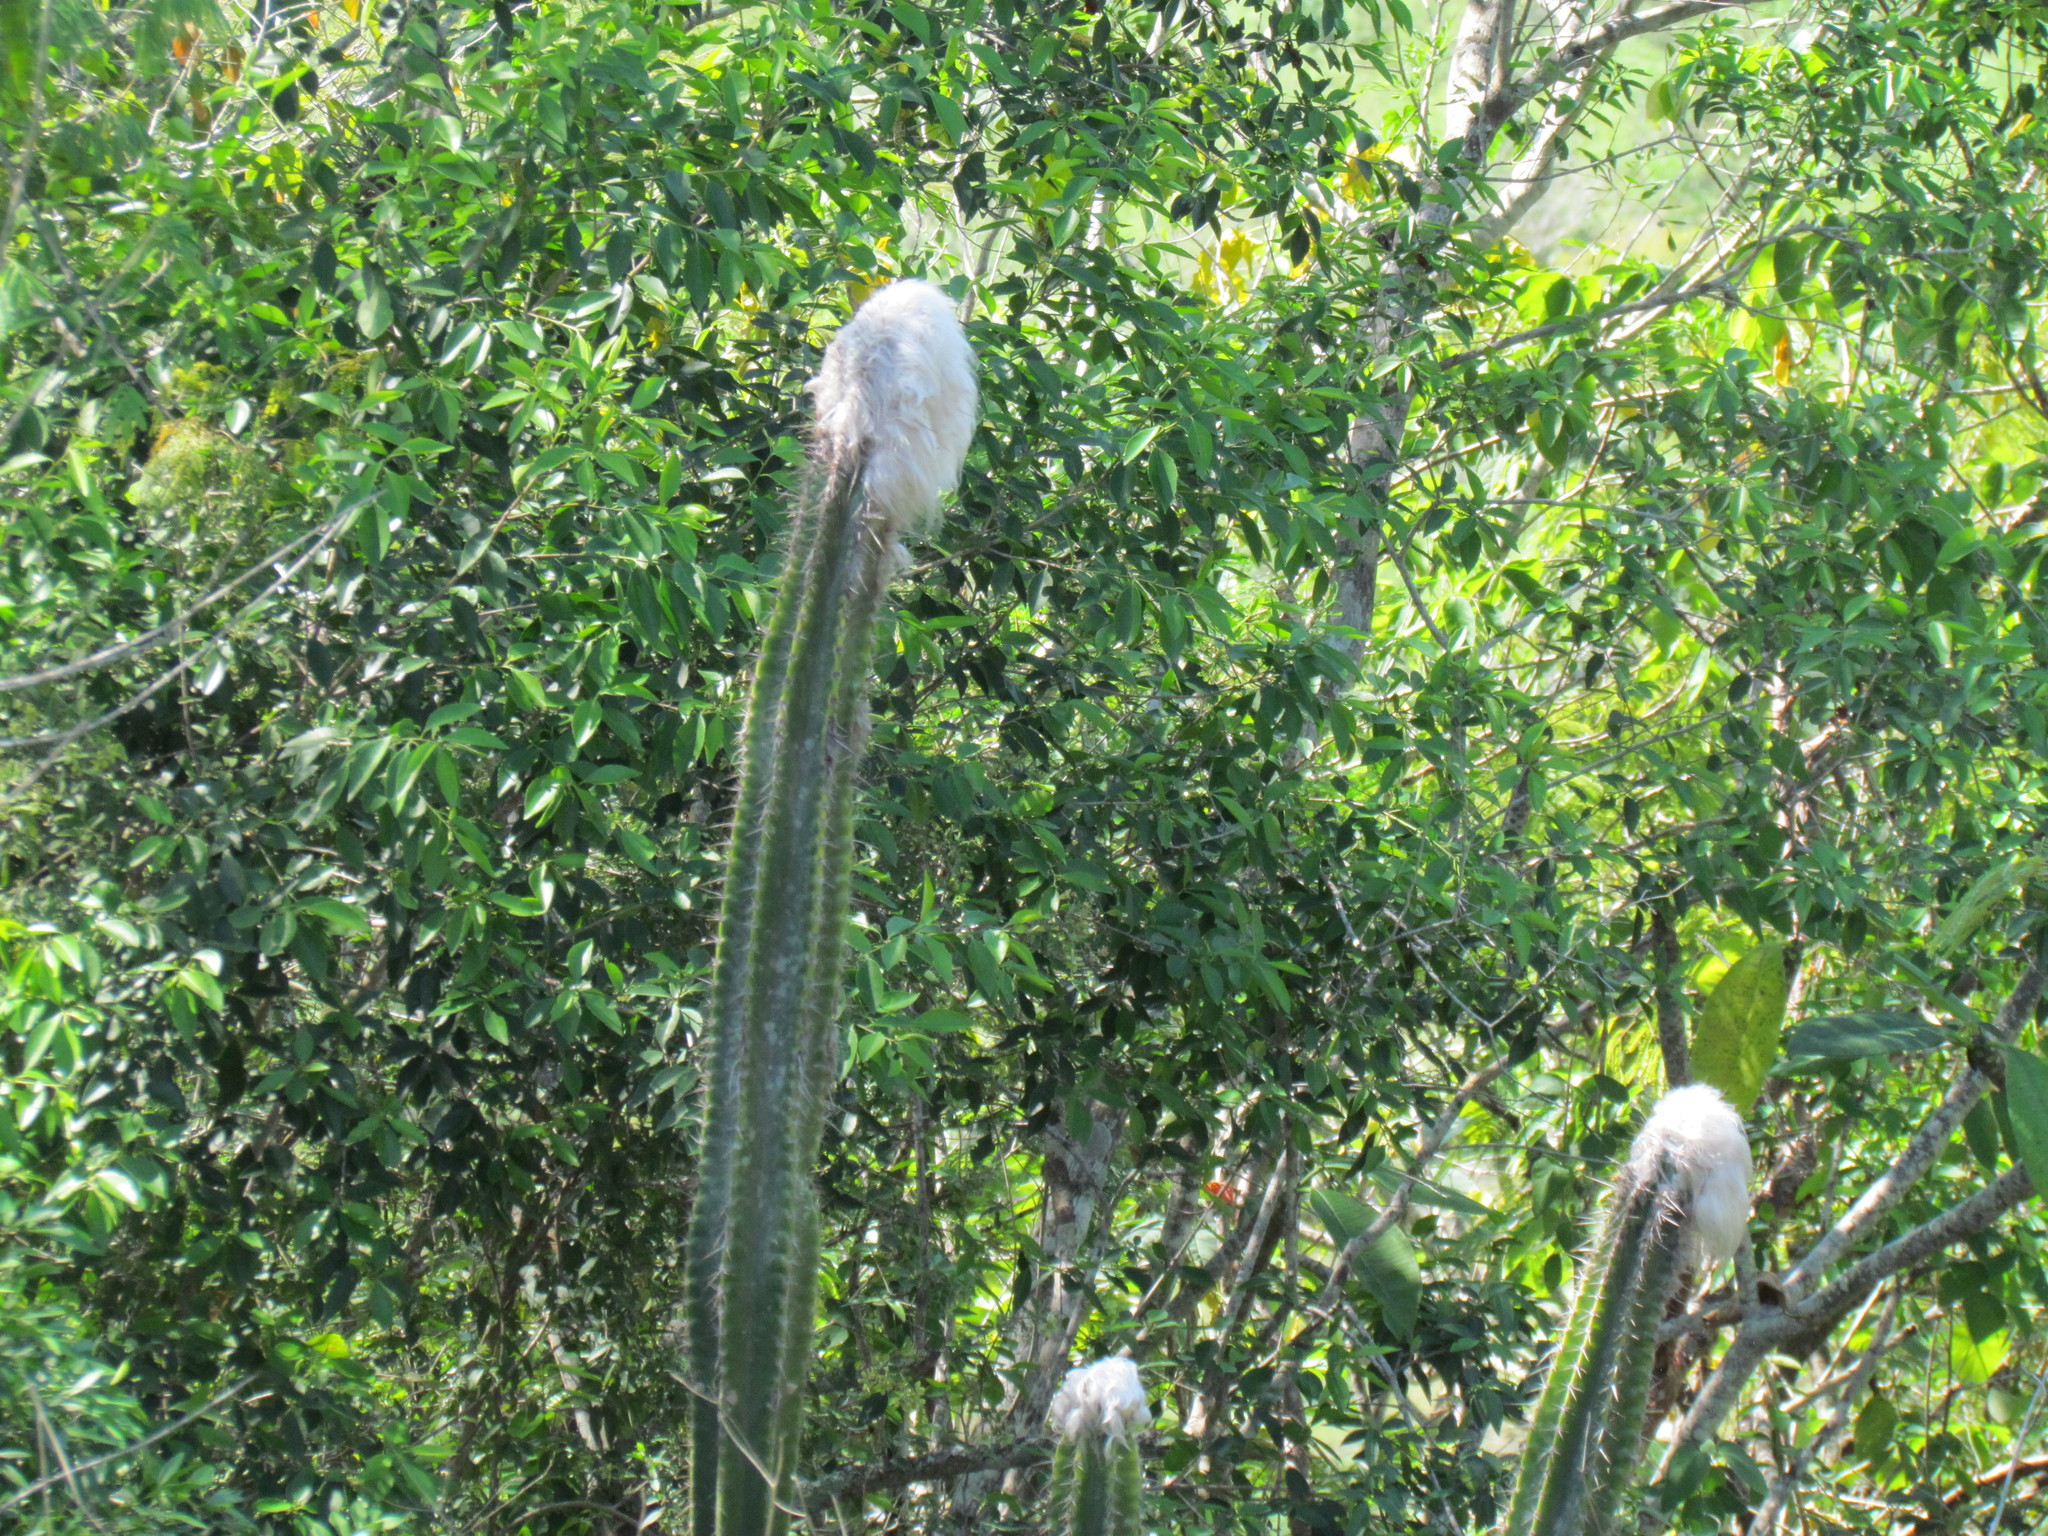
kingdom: Plantae
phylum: Tracheophyta
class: Magnoliopsida
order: Caryophyllales
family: Cactaceae
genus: Pilosocereus
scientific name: Pilosocereus leucocephalus
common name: Old man cactus
